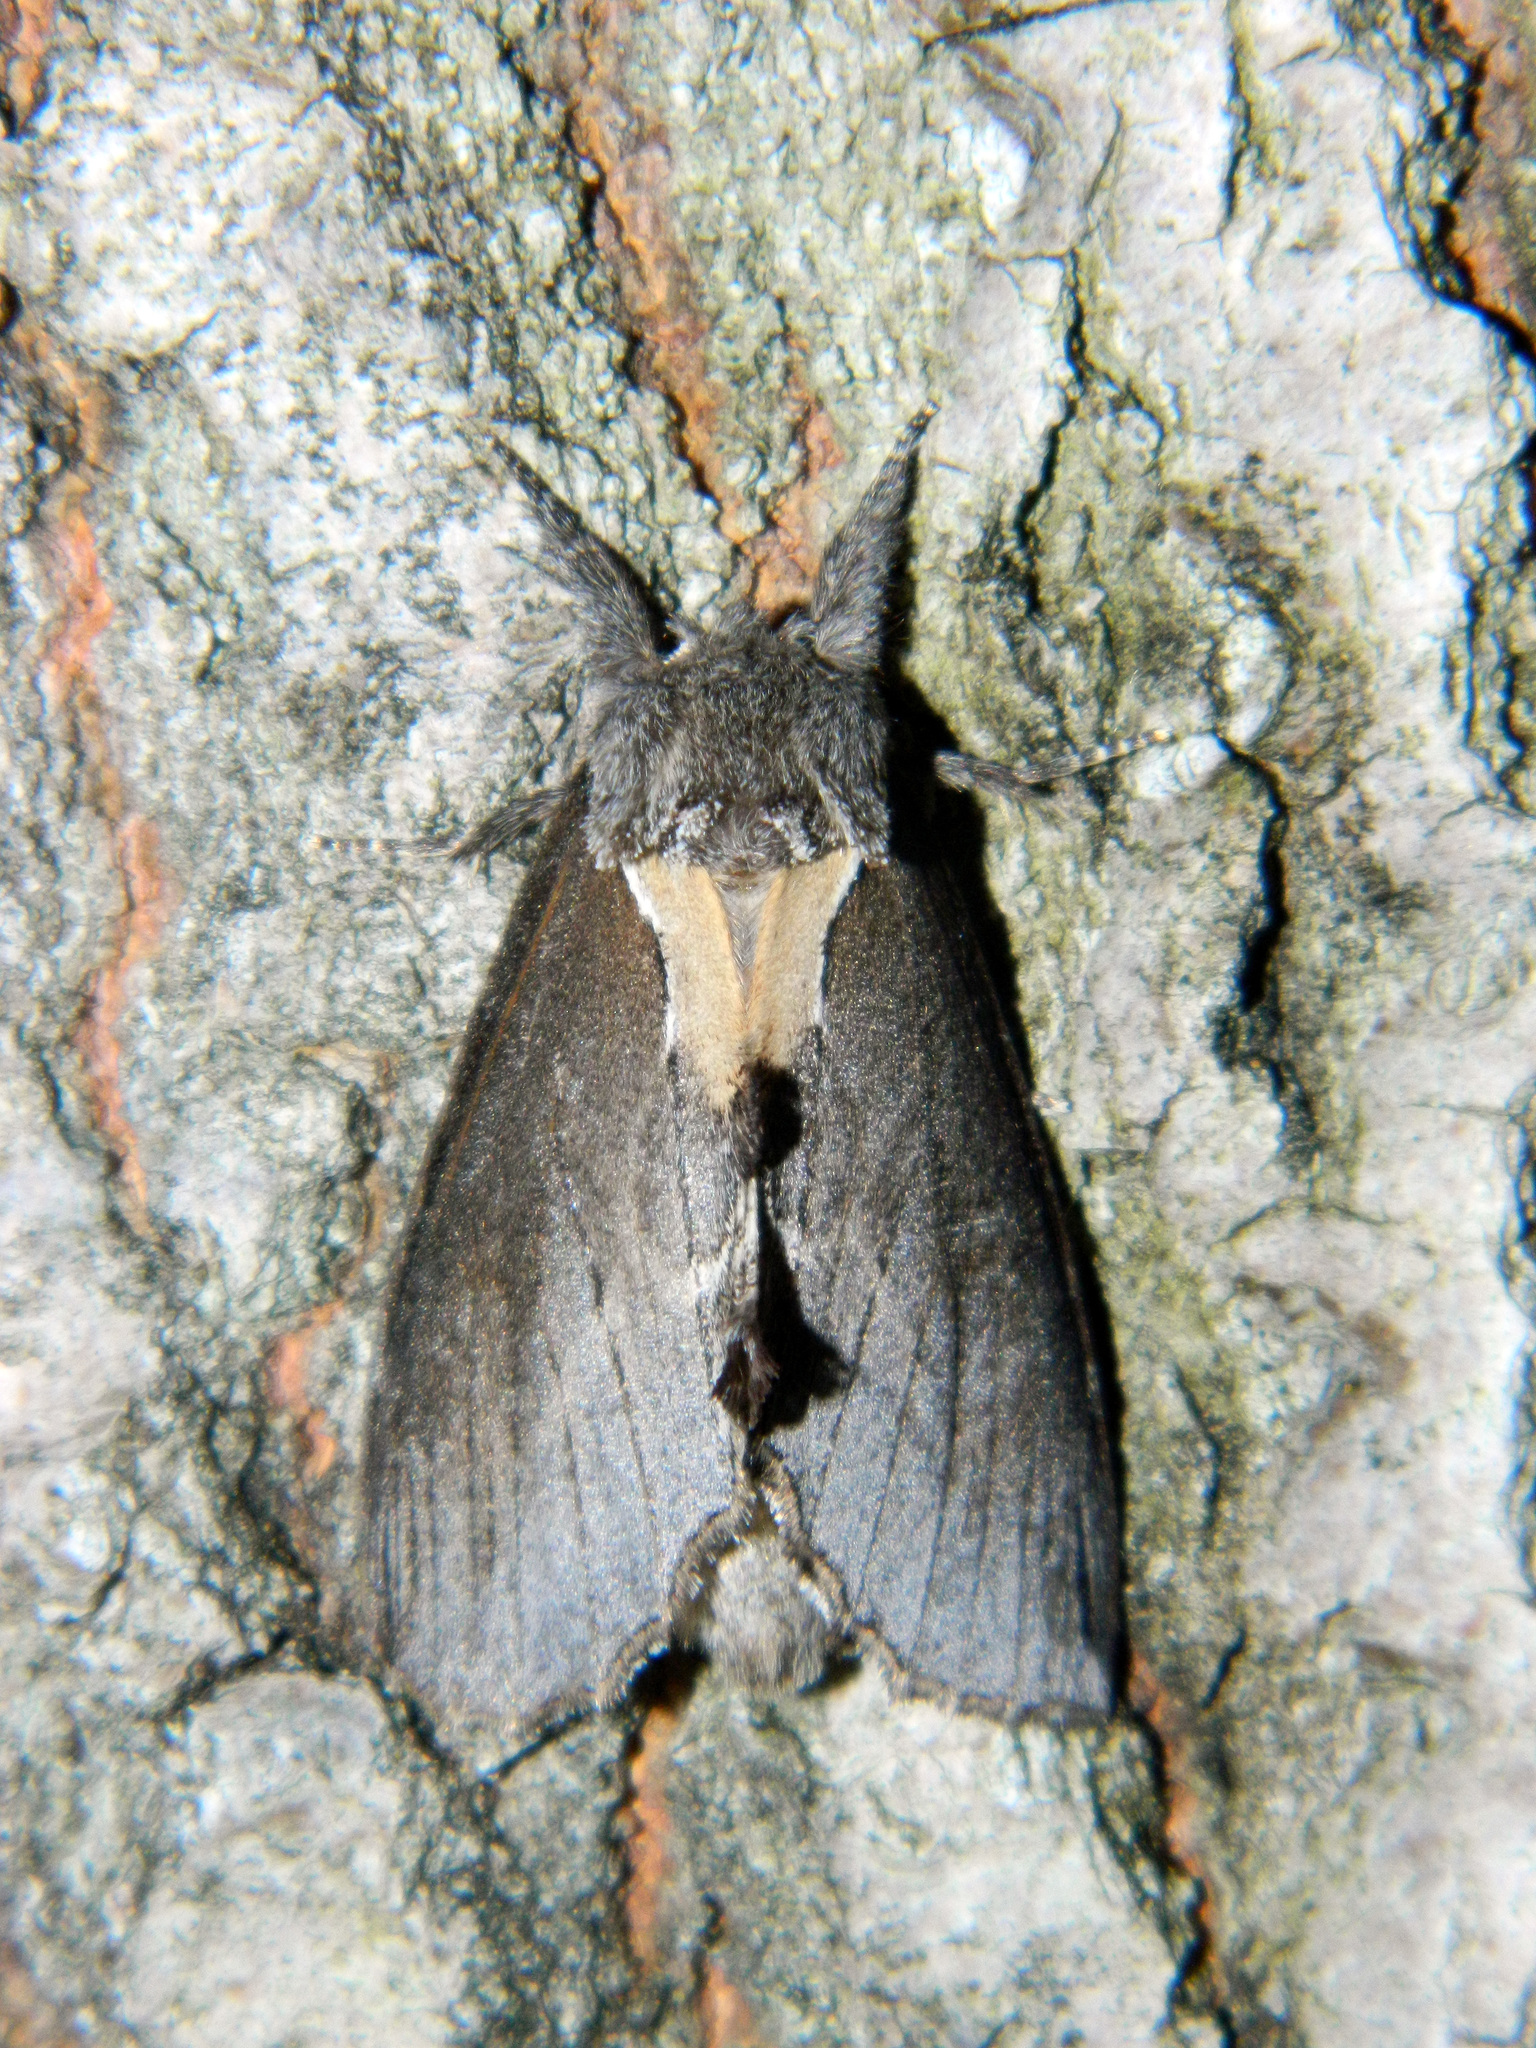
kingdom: Animalia
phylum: Arthropoda
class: Insecta
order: Lepidoptera
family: Notodontidae
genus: Pheosidea
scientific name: Pheosidea elegans
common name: Elegant prominent
